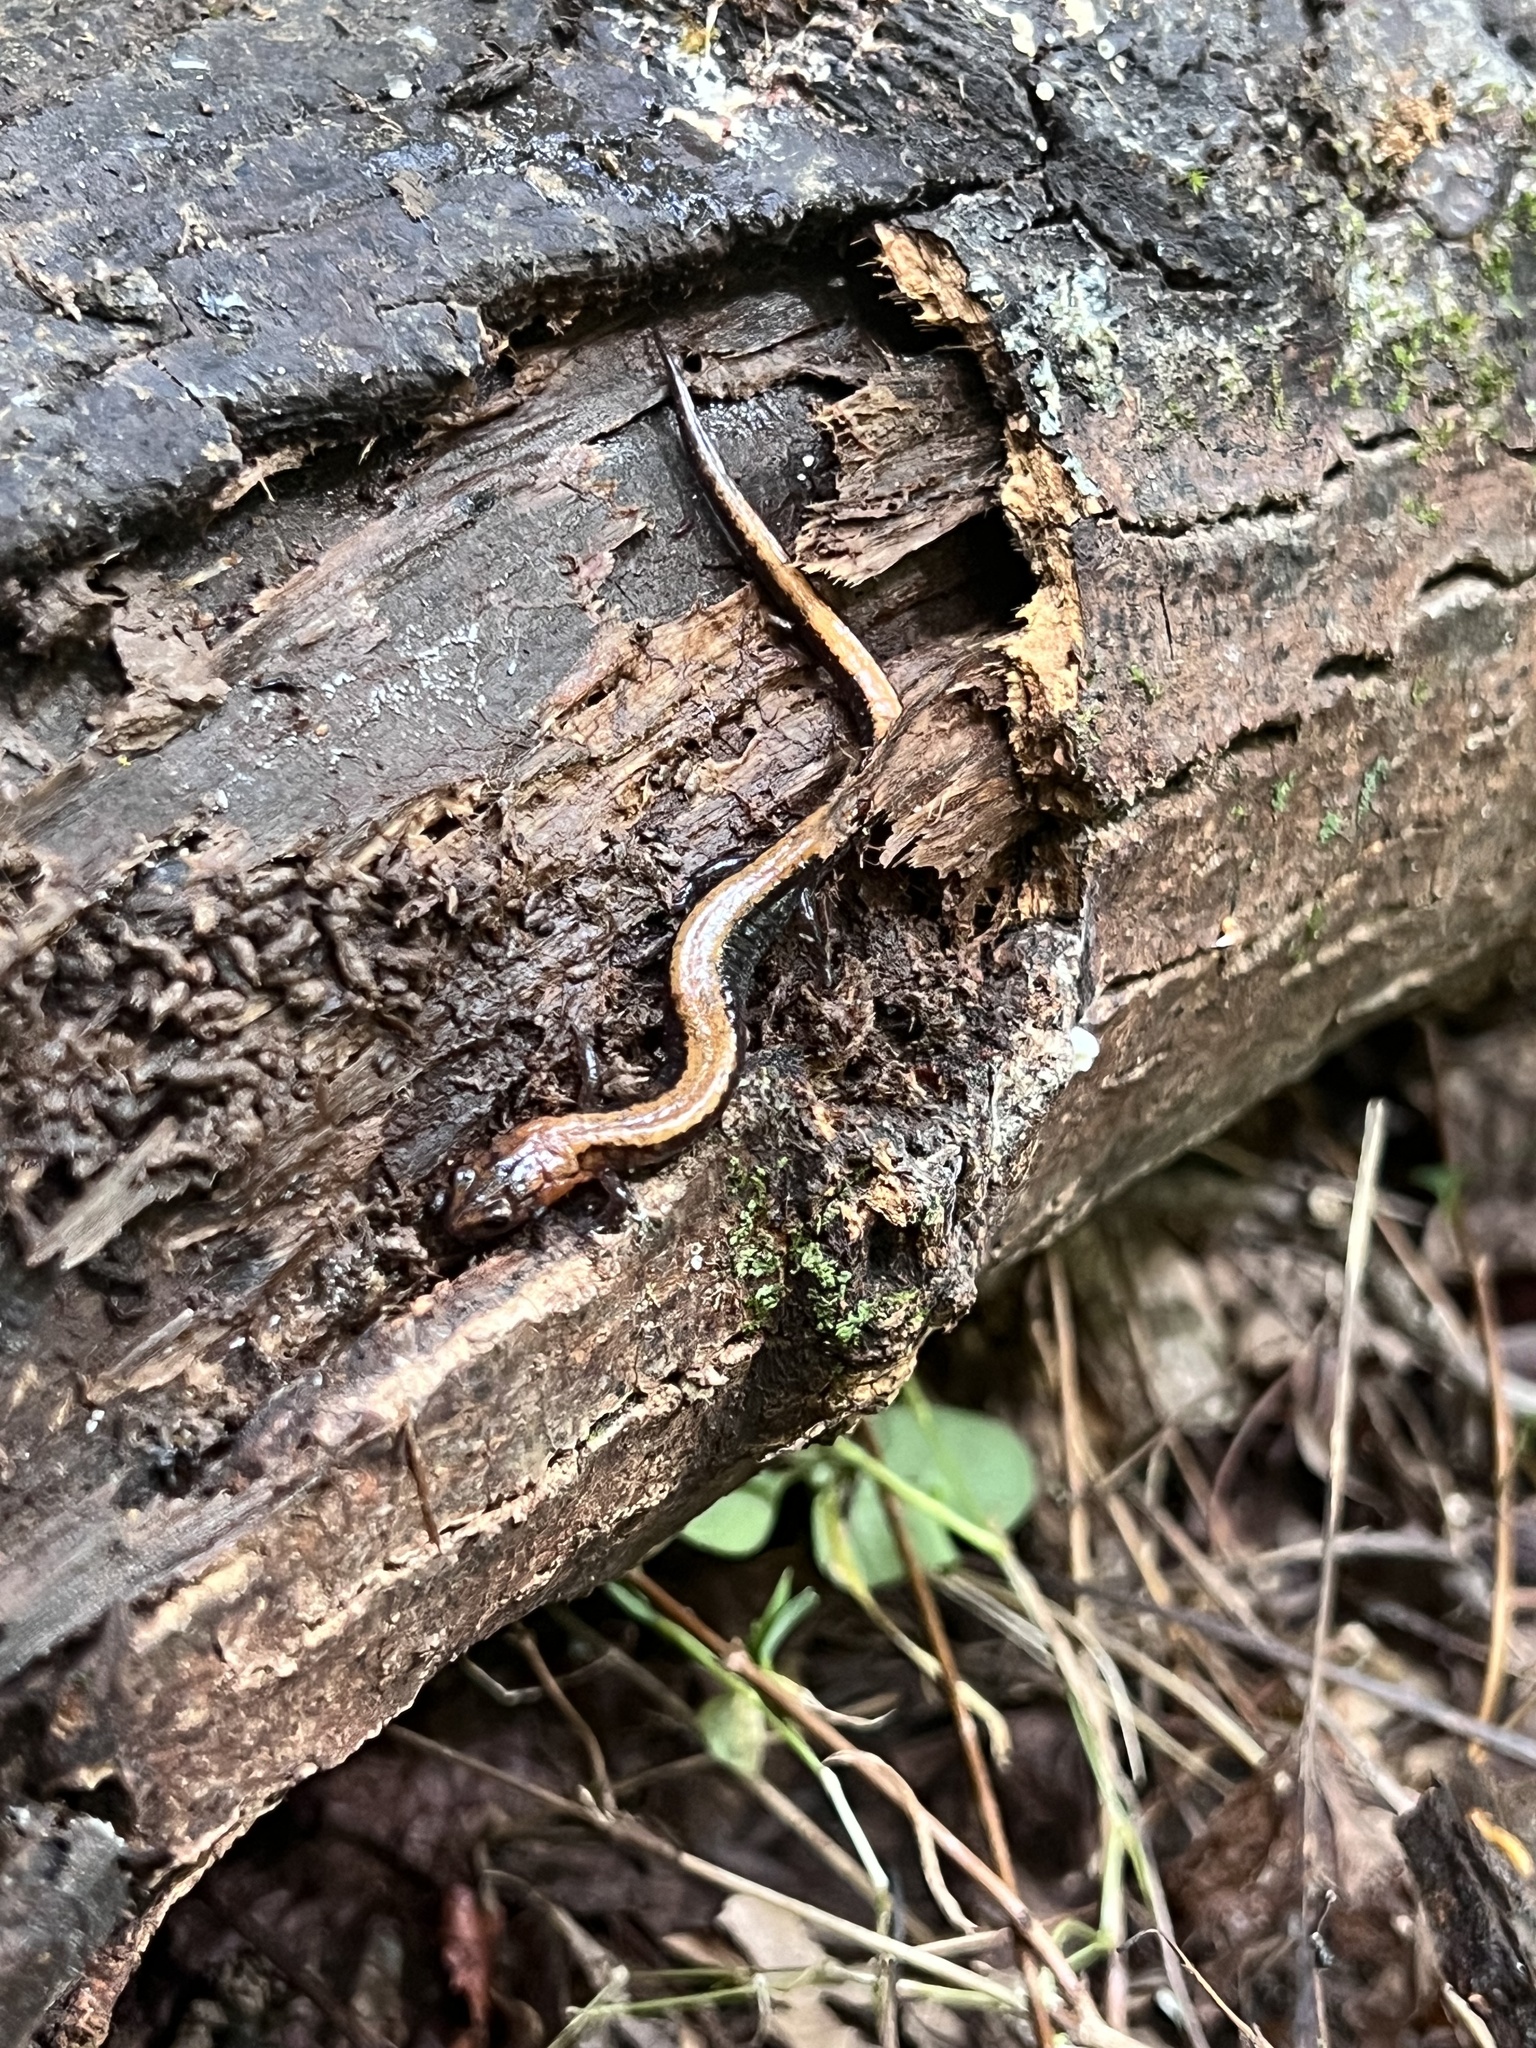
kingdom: Animalia
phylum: Chordata
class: Amphibia
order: Caudata
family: Plethodontidae
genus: Plethodon
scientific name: Plethodon cinereus
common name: Redback salamander
